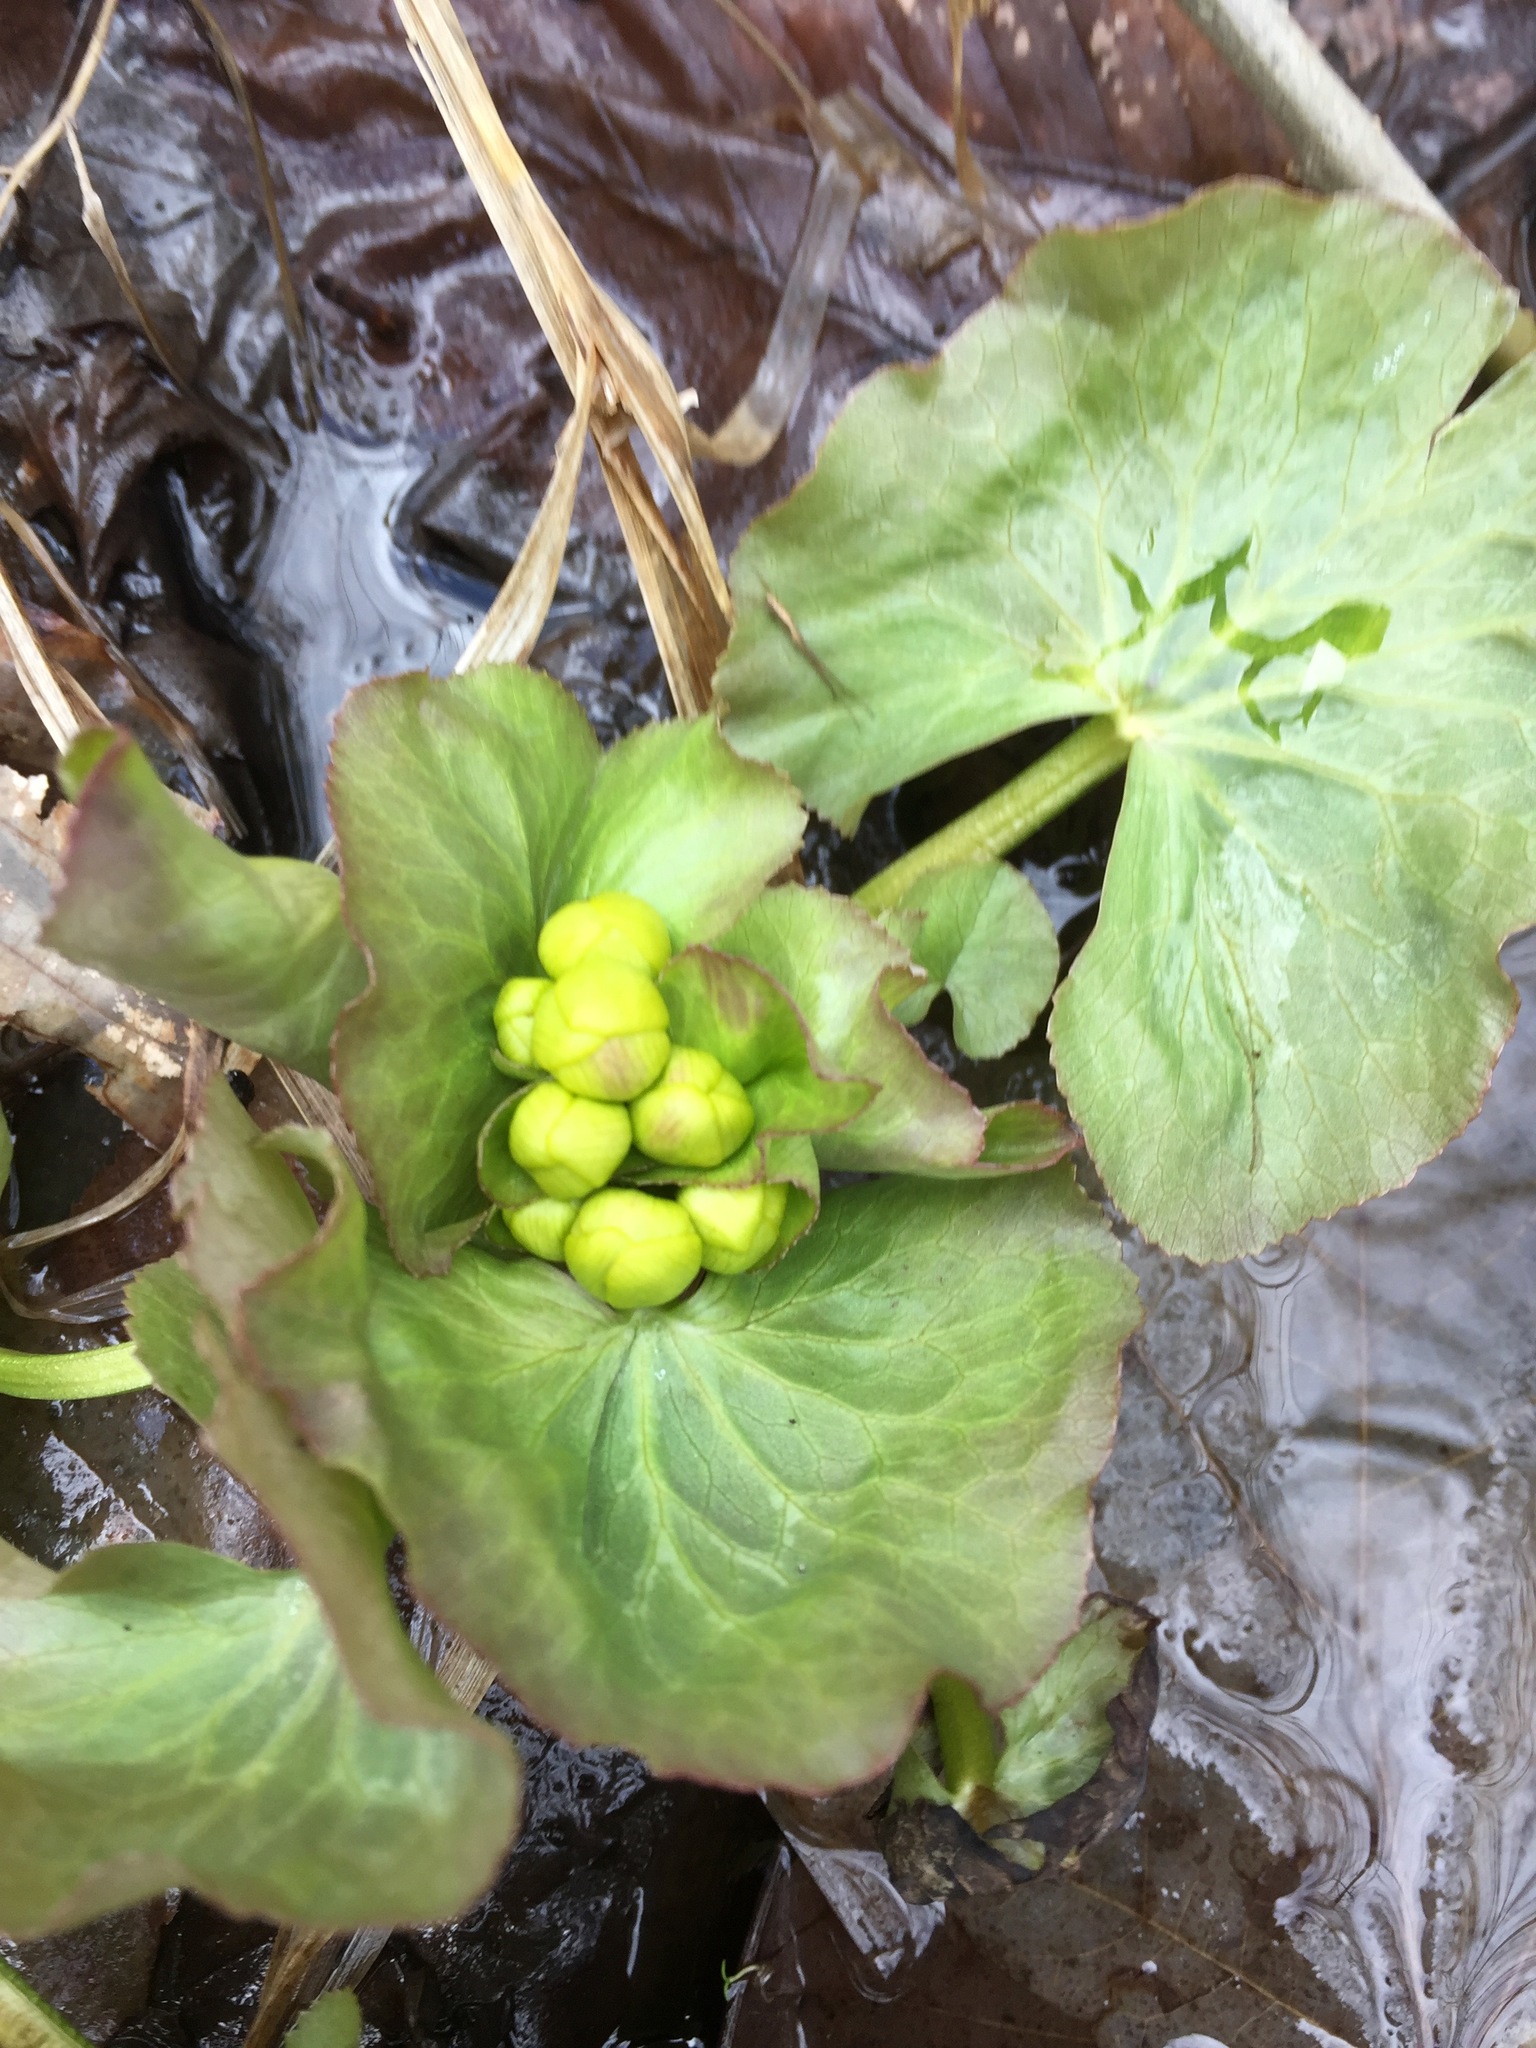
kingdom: Plantae
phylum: Tracheophyta
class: Magnoliopsida
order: Ranunculales
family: Ranunculaceae
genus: Caltha
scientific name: Caltha palustris
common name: Marsh marigold
